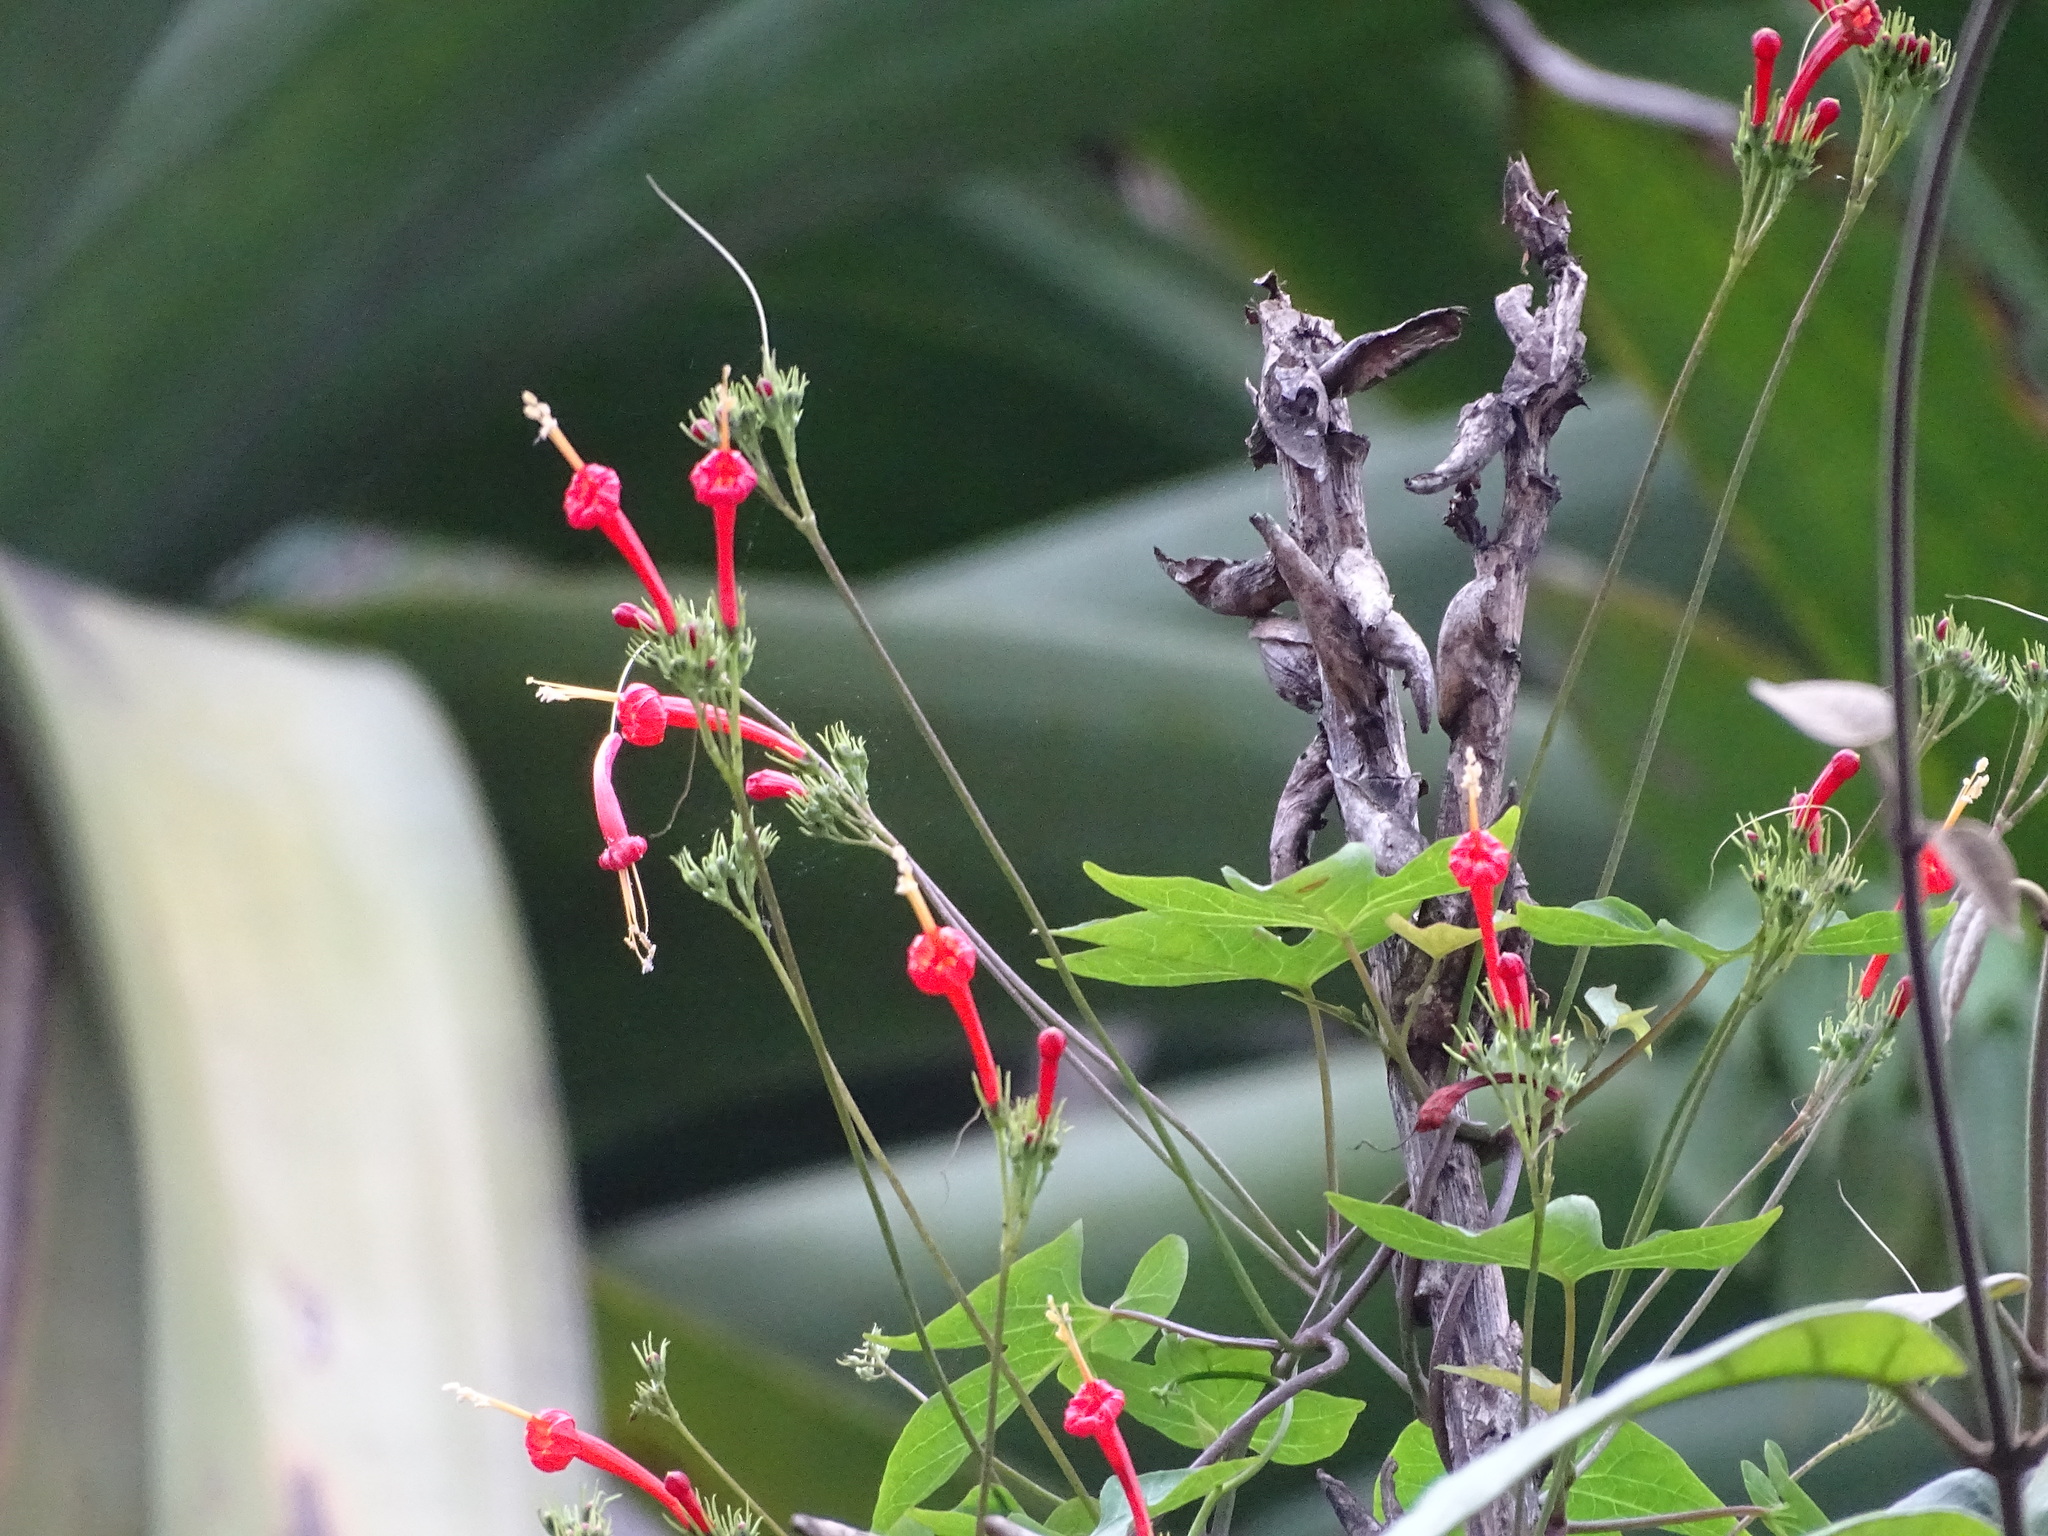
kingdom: Plantae
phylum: Tracheophyta
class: Magnoliopsida
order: Solanales
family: Convolvulaceae
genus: Ipomoea
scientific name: Ipomoea hastigera
